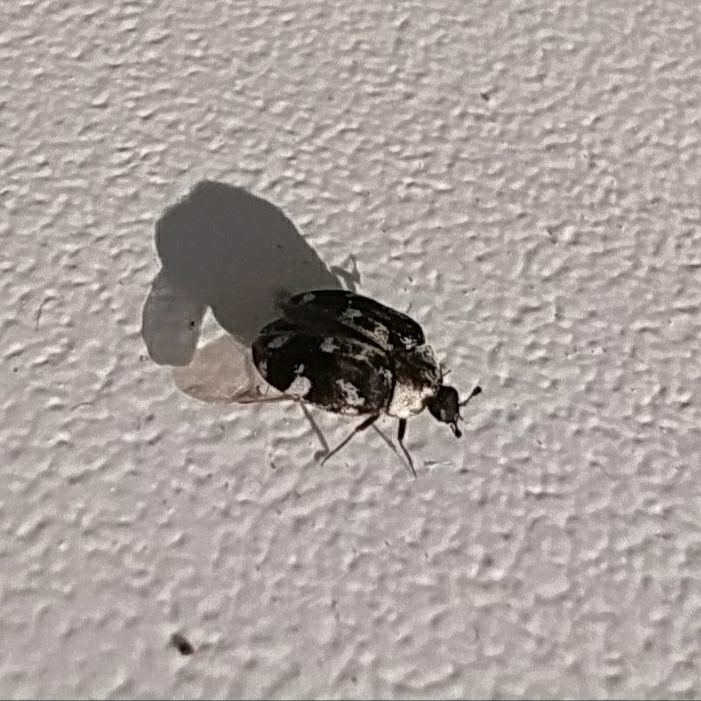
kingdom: Animalia
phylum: Arthropoda
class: Insecta
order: Coleoptera
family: Dermestidae
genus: Anthrenus
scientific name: Anthrenus picturatus
